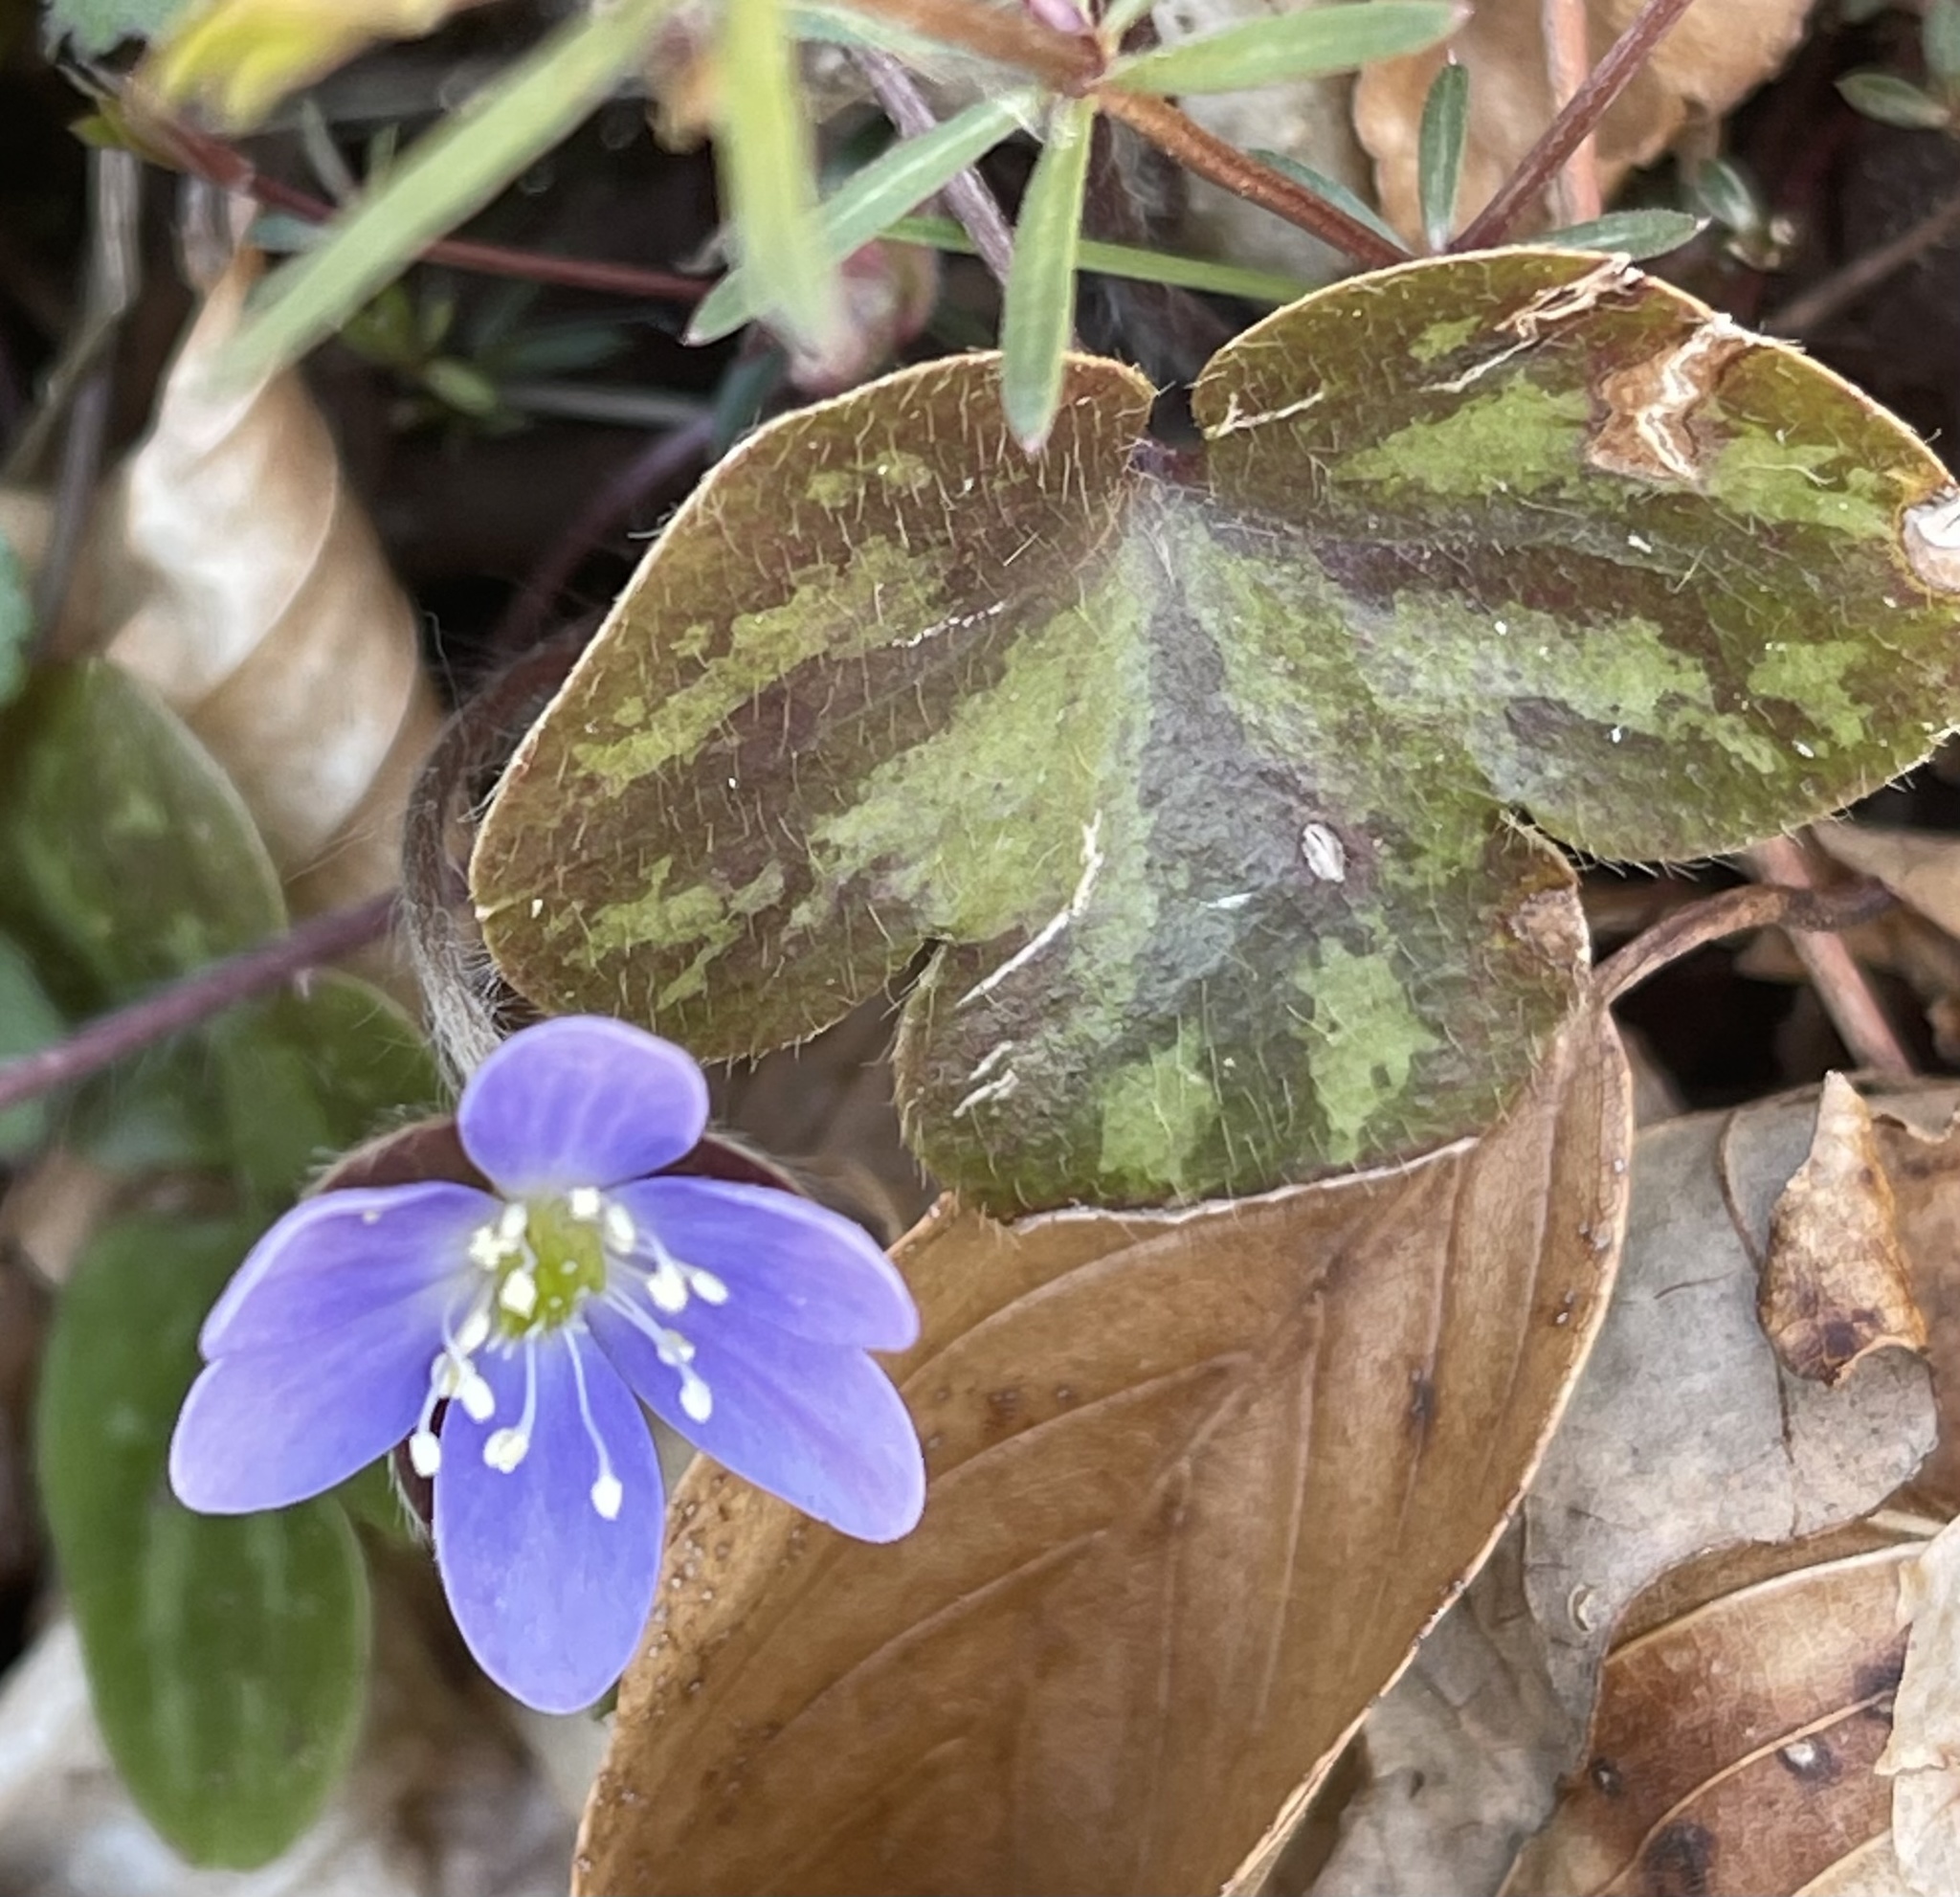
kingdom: Plantae
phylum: Tracheophyta
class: Magnoliopsida
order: Ranunculales
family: Ranunculaceae
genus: Hepatica
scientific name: Hepatica americana
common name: American hepatica
